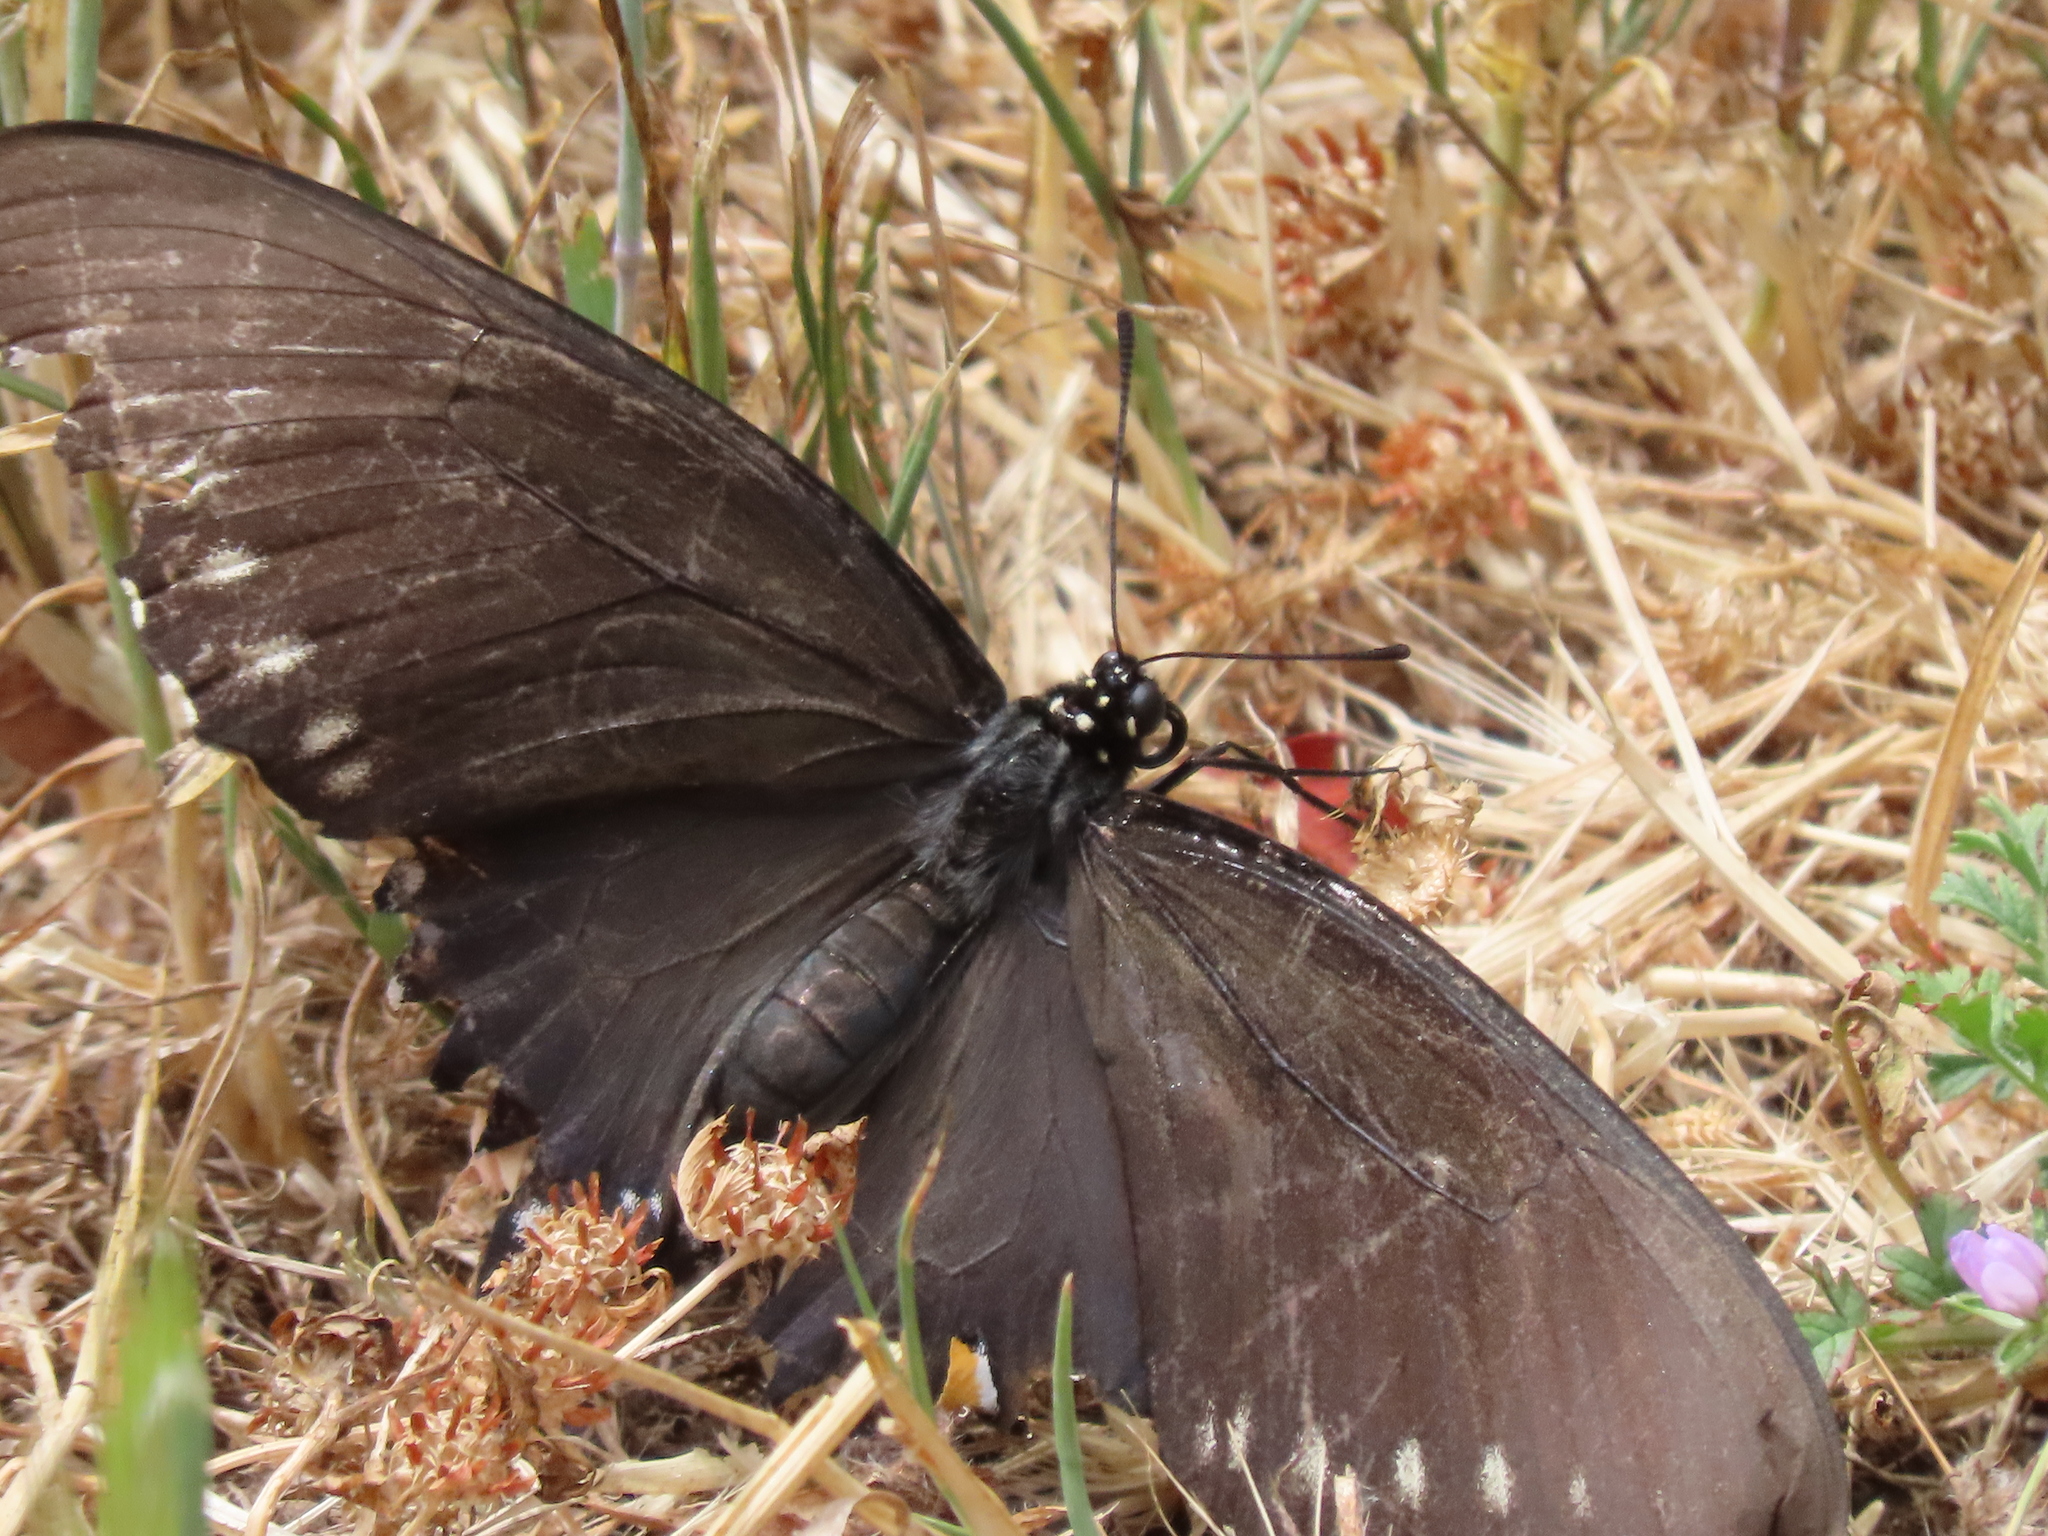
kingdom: Animalia
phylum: Arthropoda
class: Insecta
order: Lepidoptera
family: Papilionidae
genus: Battus
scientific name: Battus philenor
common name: Pipevine swallowtail
